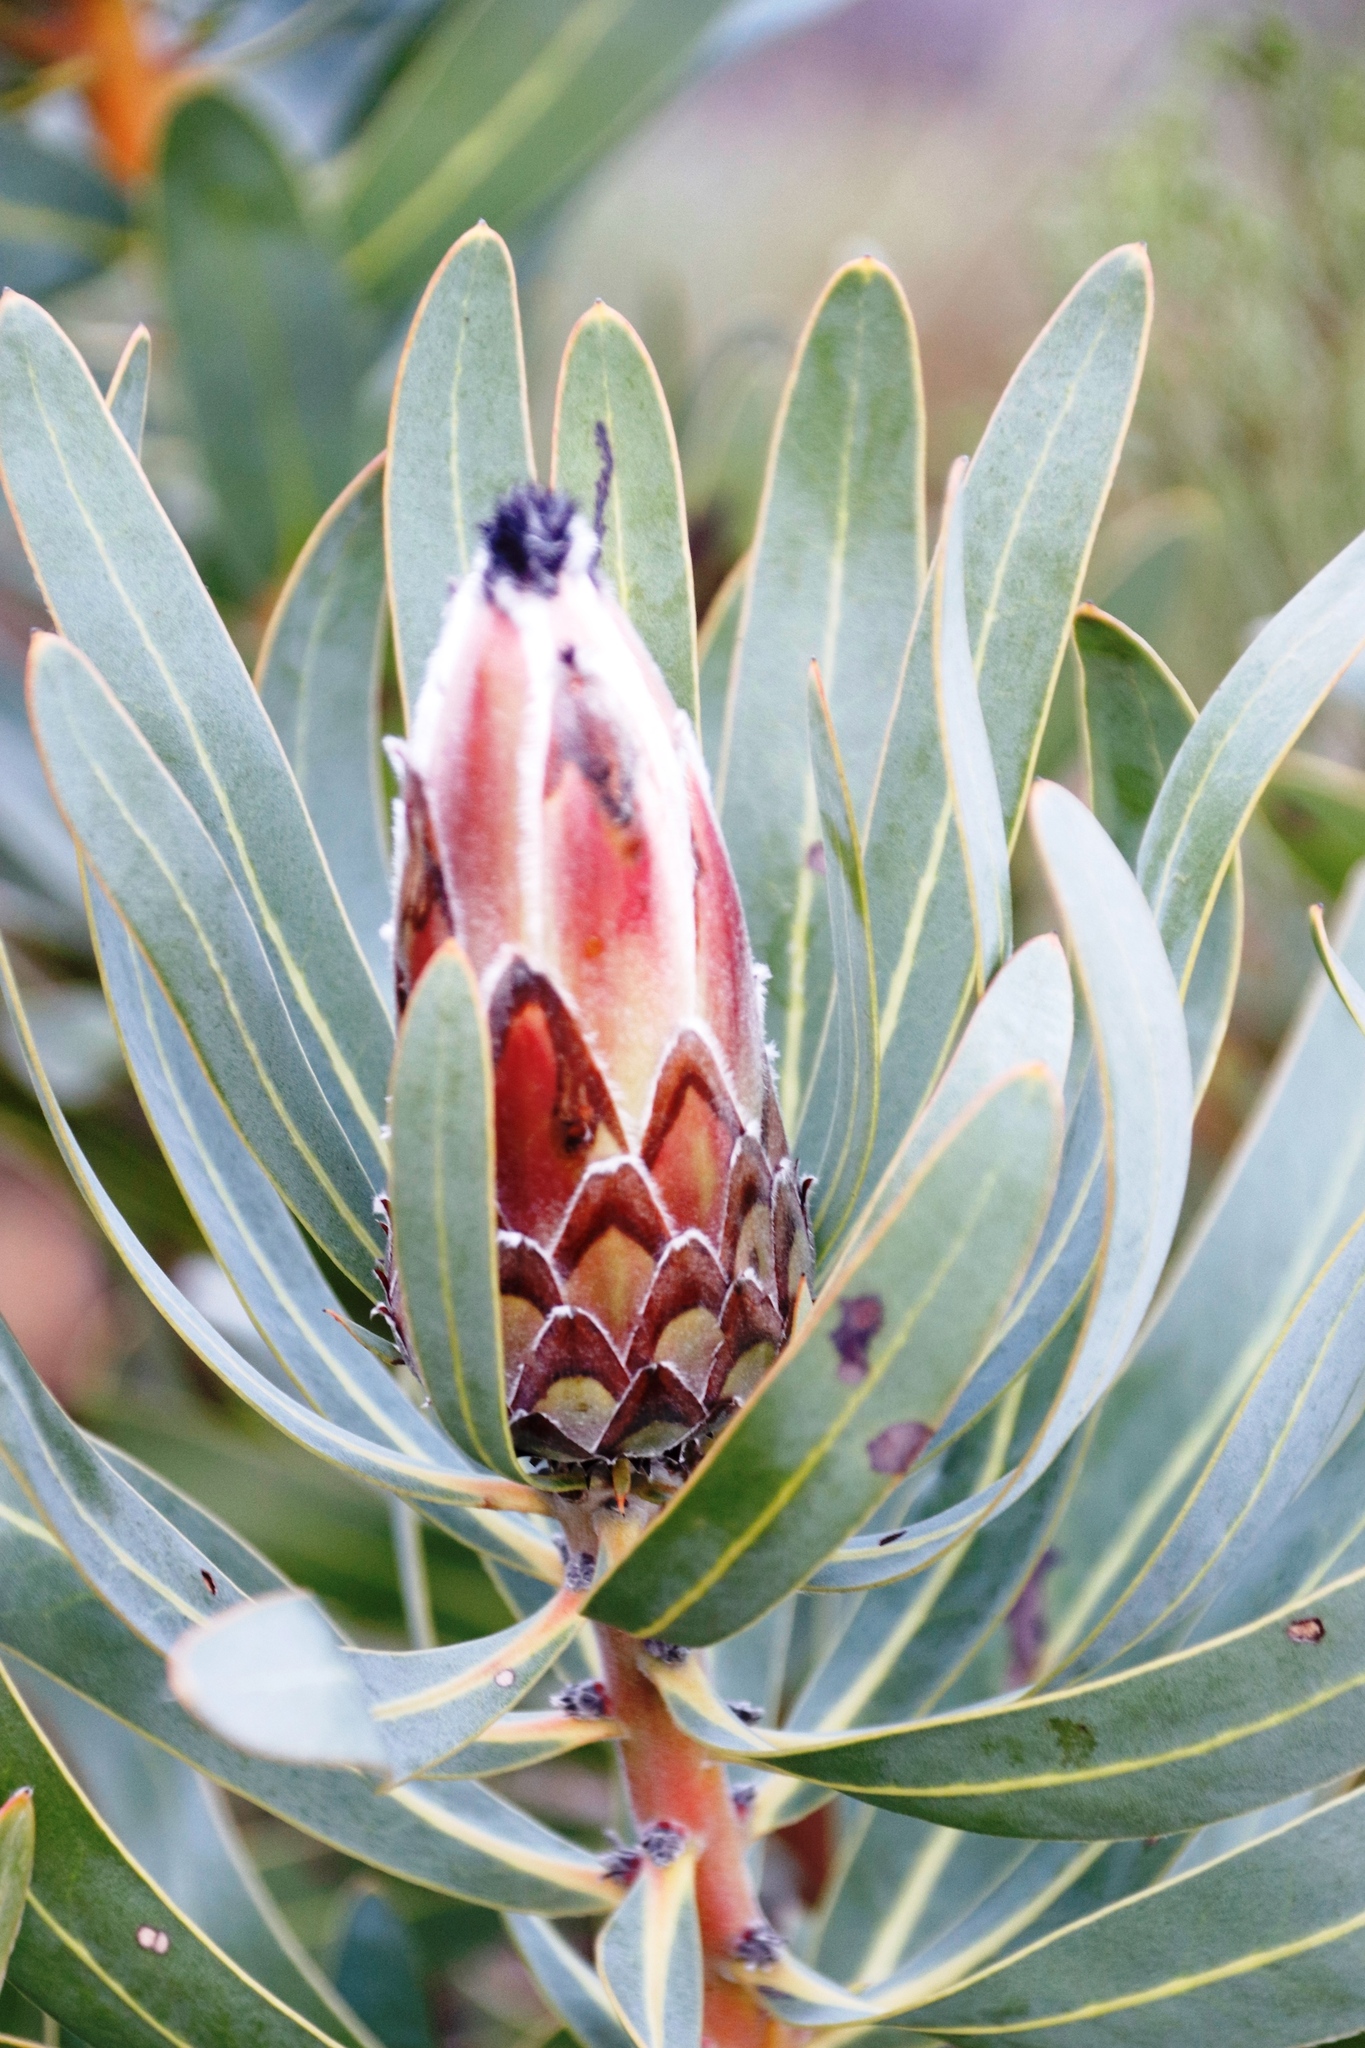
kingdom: Plantae
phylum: Tracheophyta
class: Magnoliopsida
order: Proteales
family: Proteaceae
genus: Protea
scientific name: Protea
